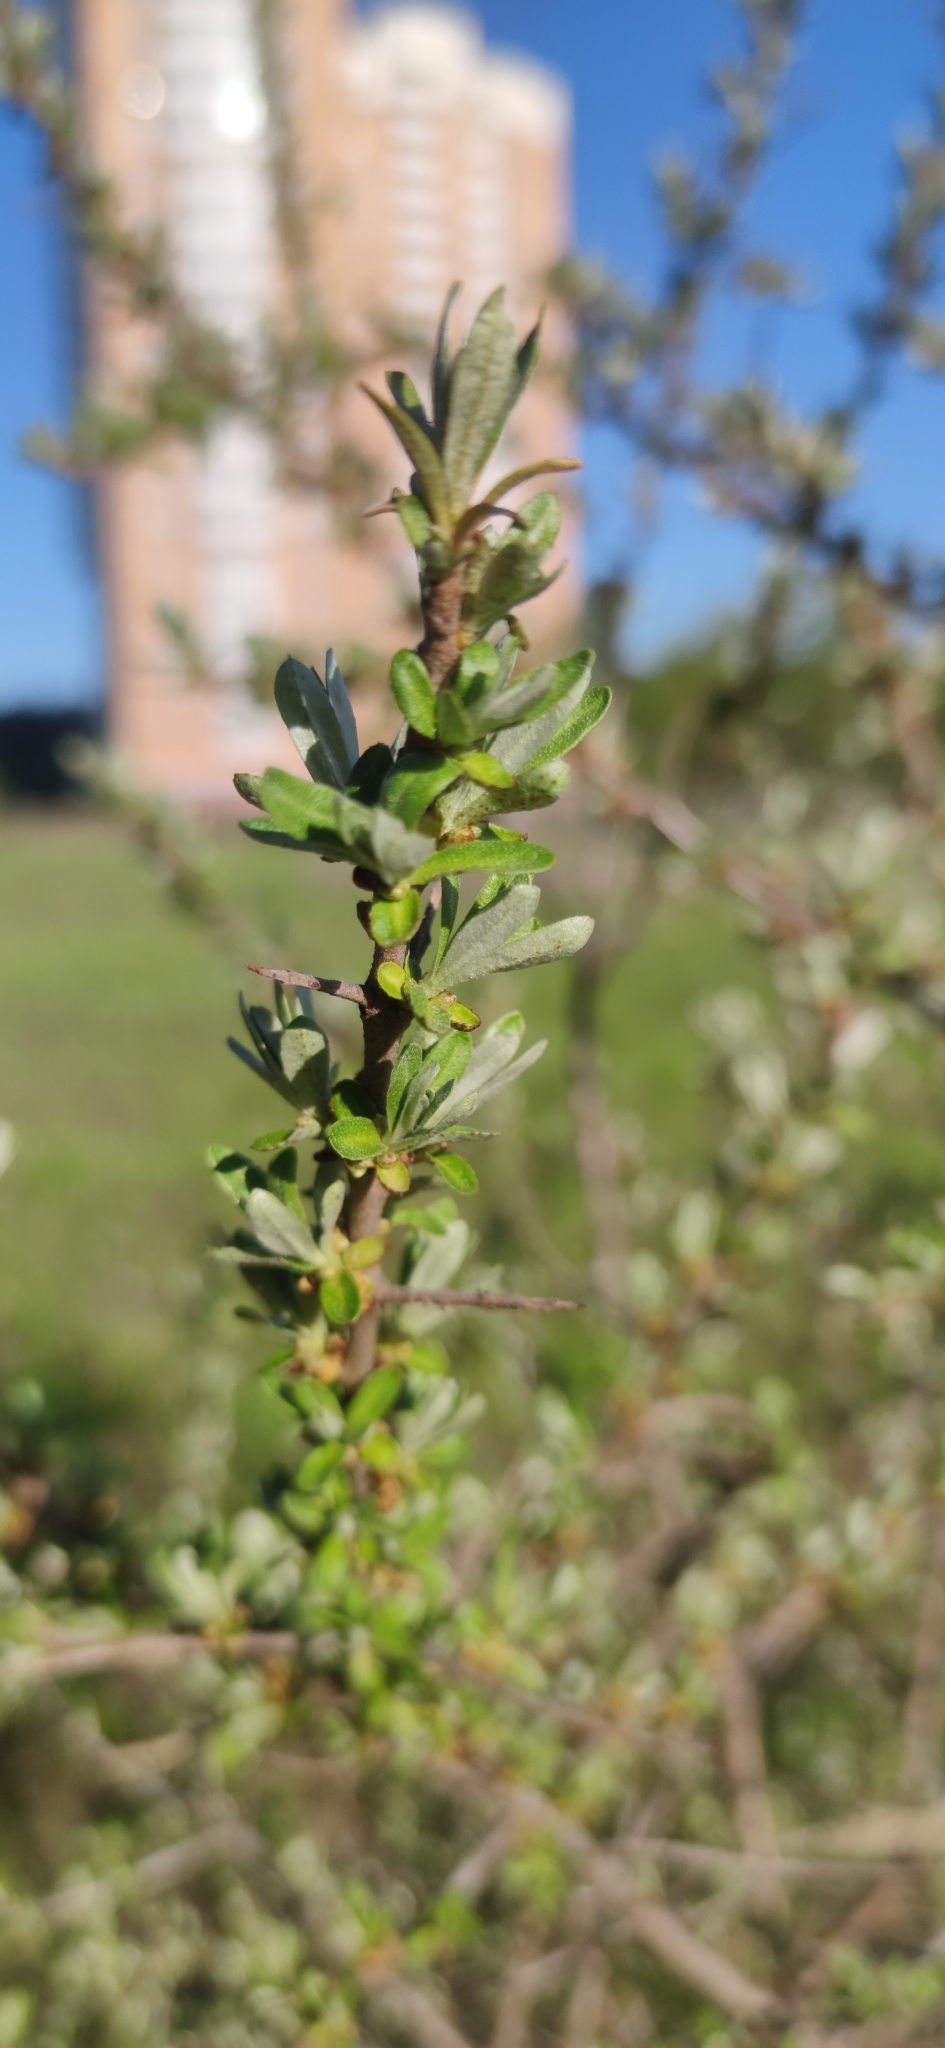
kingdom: Plantae
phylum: Tracheophyta
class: Magnoliopsida
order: Rosales
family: Elaeagnaceae
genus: Hippophae
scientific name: Hippophae rhamnoides
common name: Sea-buckthorn
